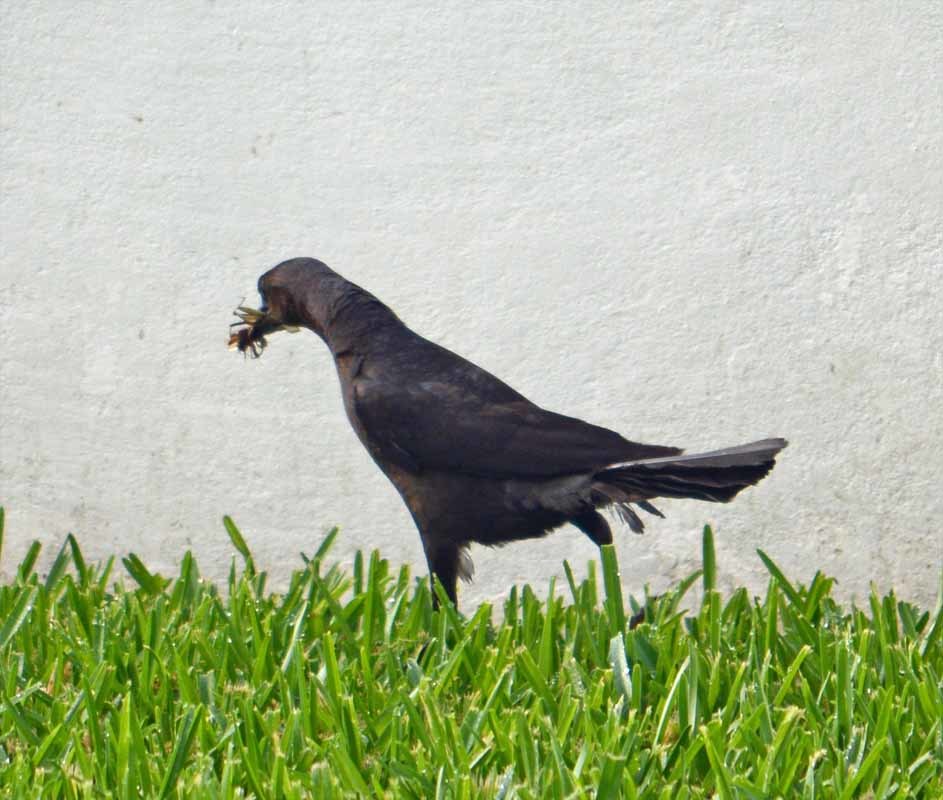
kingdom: Animalia
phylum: Chordata
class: Aves
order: Passeriformes
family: Icteridae
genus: Quiscalus
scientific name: Quiscalus mexicanus
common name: Great-tailed grackle
